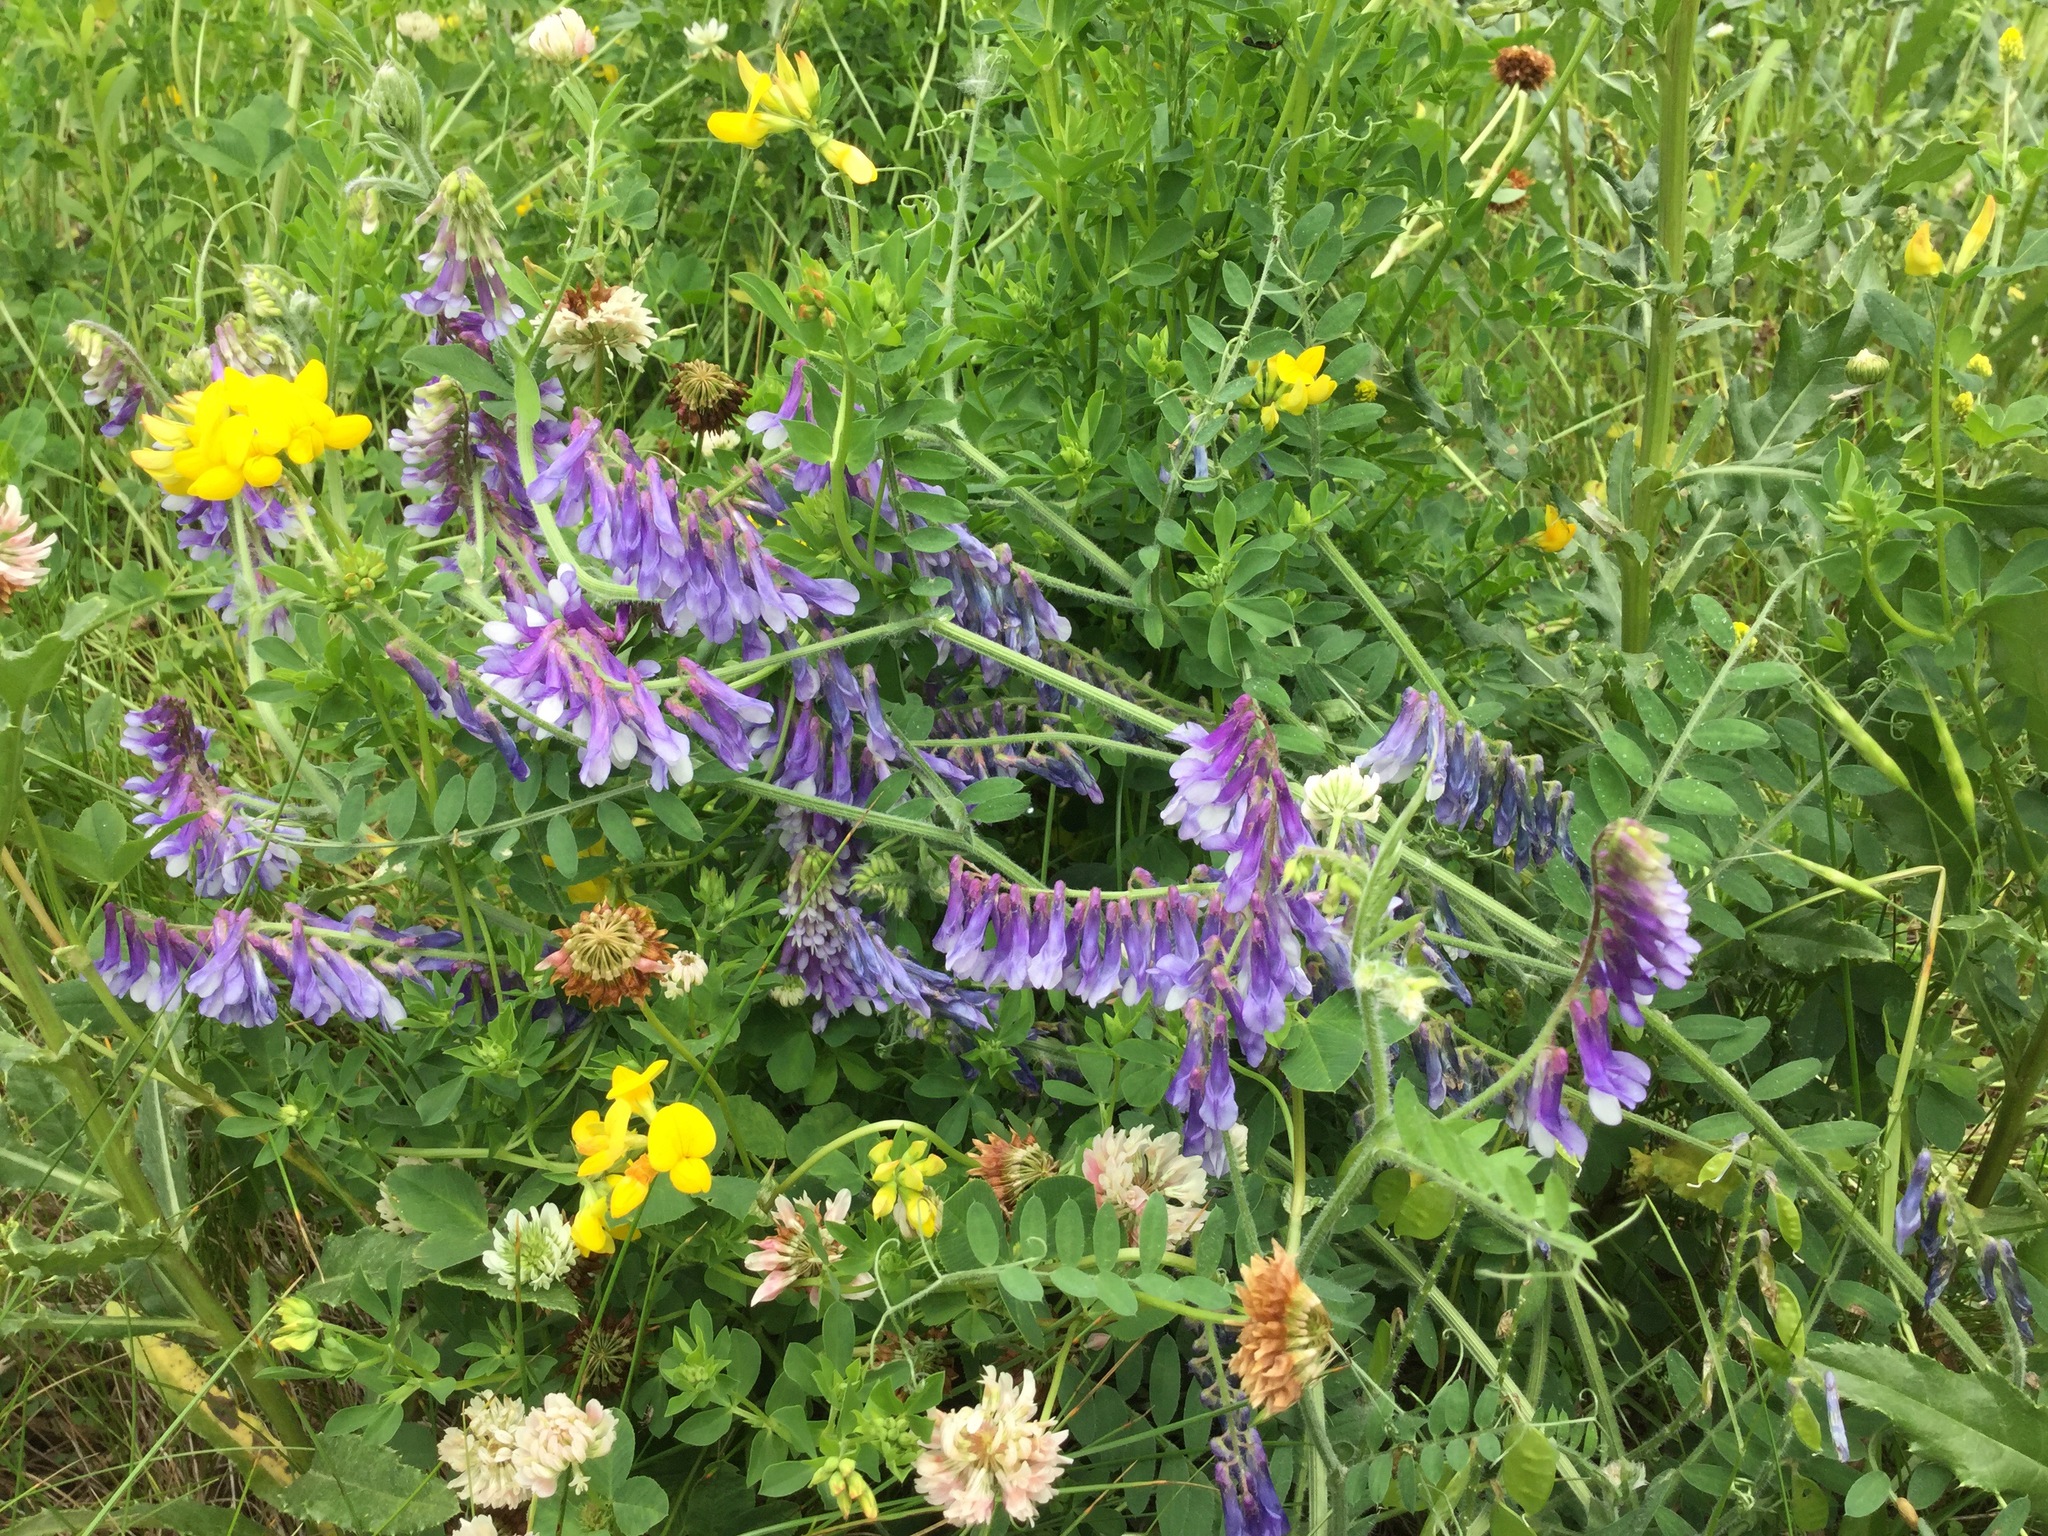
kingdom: Plantae
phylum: Tracheophyta
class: Magnoliopsida
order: Fabales
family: Fabaceae
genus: Vicia
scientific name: Vicia villosa
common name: Fodder vetch
